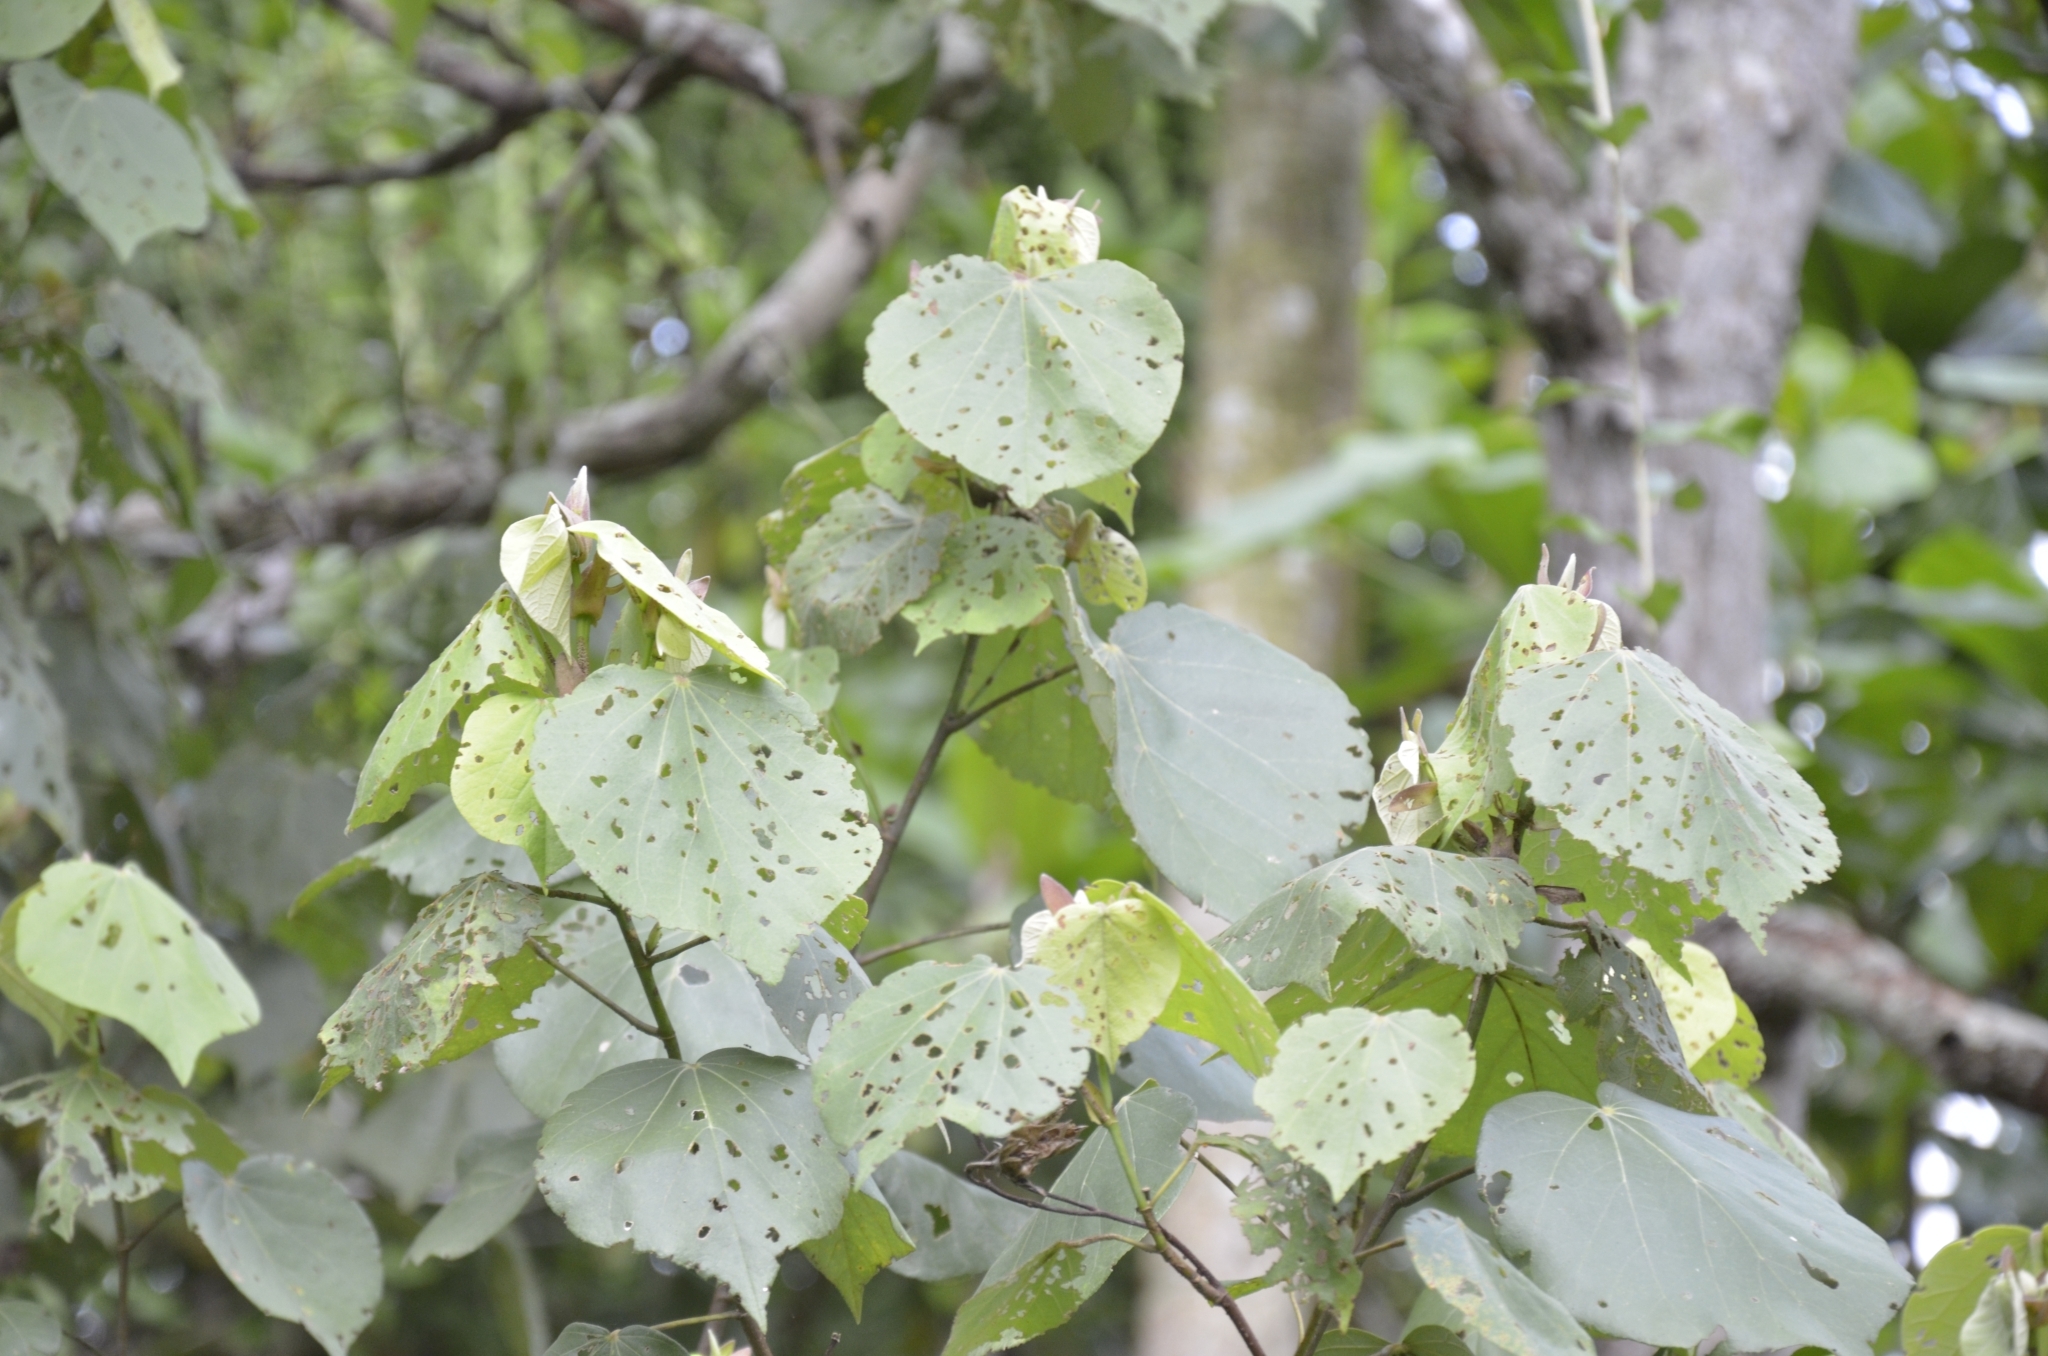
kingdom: Plantae
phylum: Tracheophyta
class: Magnoliopsida
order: Malvales
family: Malvaceae
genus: Talipariti
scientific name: Talipariti tiliaceum
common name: Sea hibiscus
